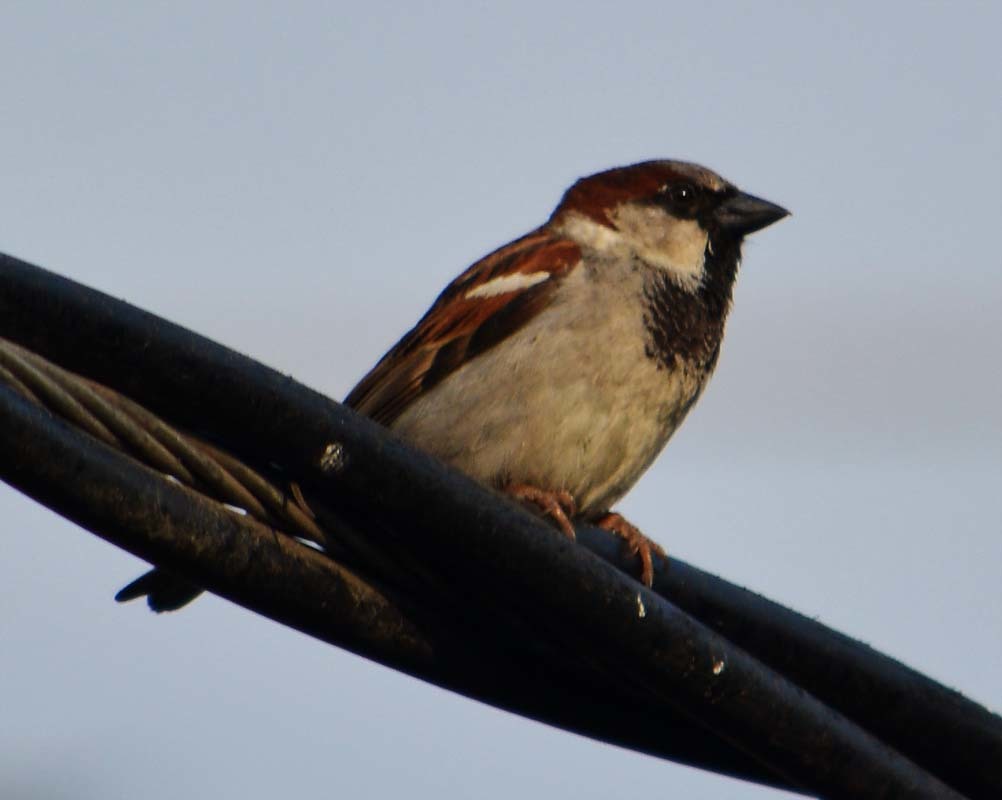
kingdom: Animalia
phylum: Chordata
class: Aves
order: Passeriformes
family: Passeridae
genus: Passer
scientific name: Passer domesticus
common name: House sparrow
